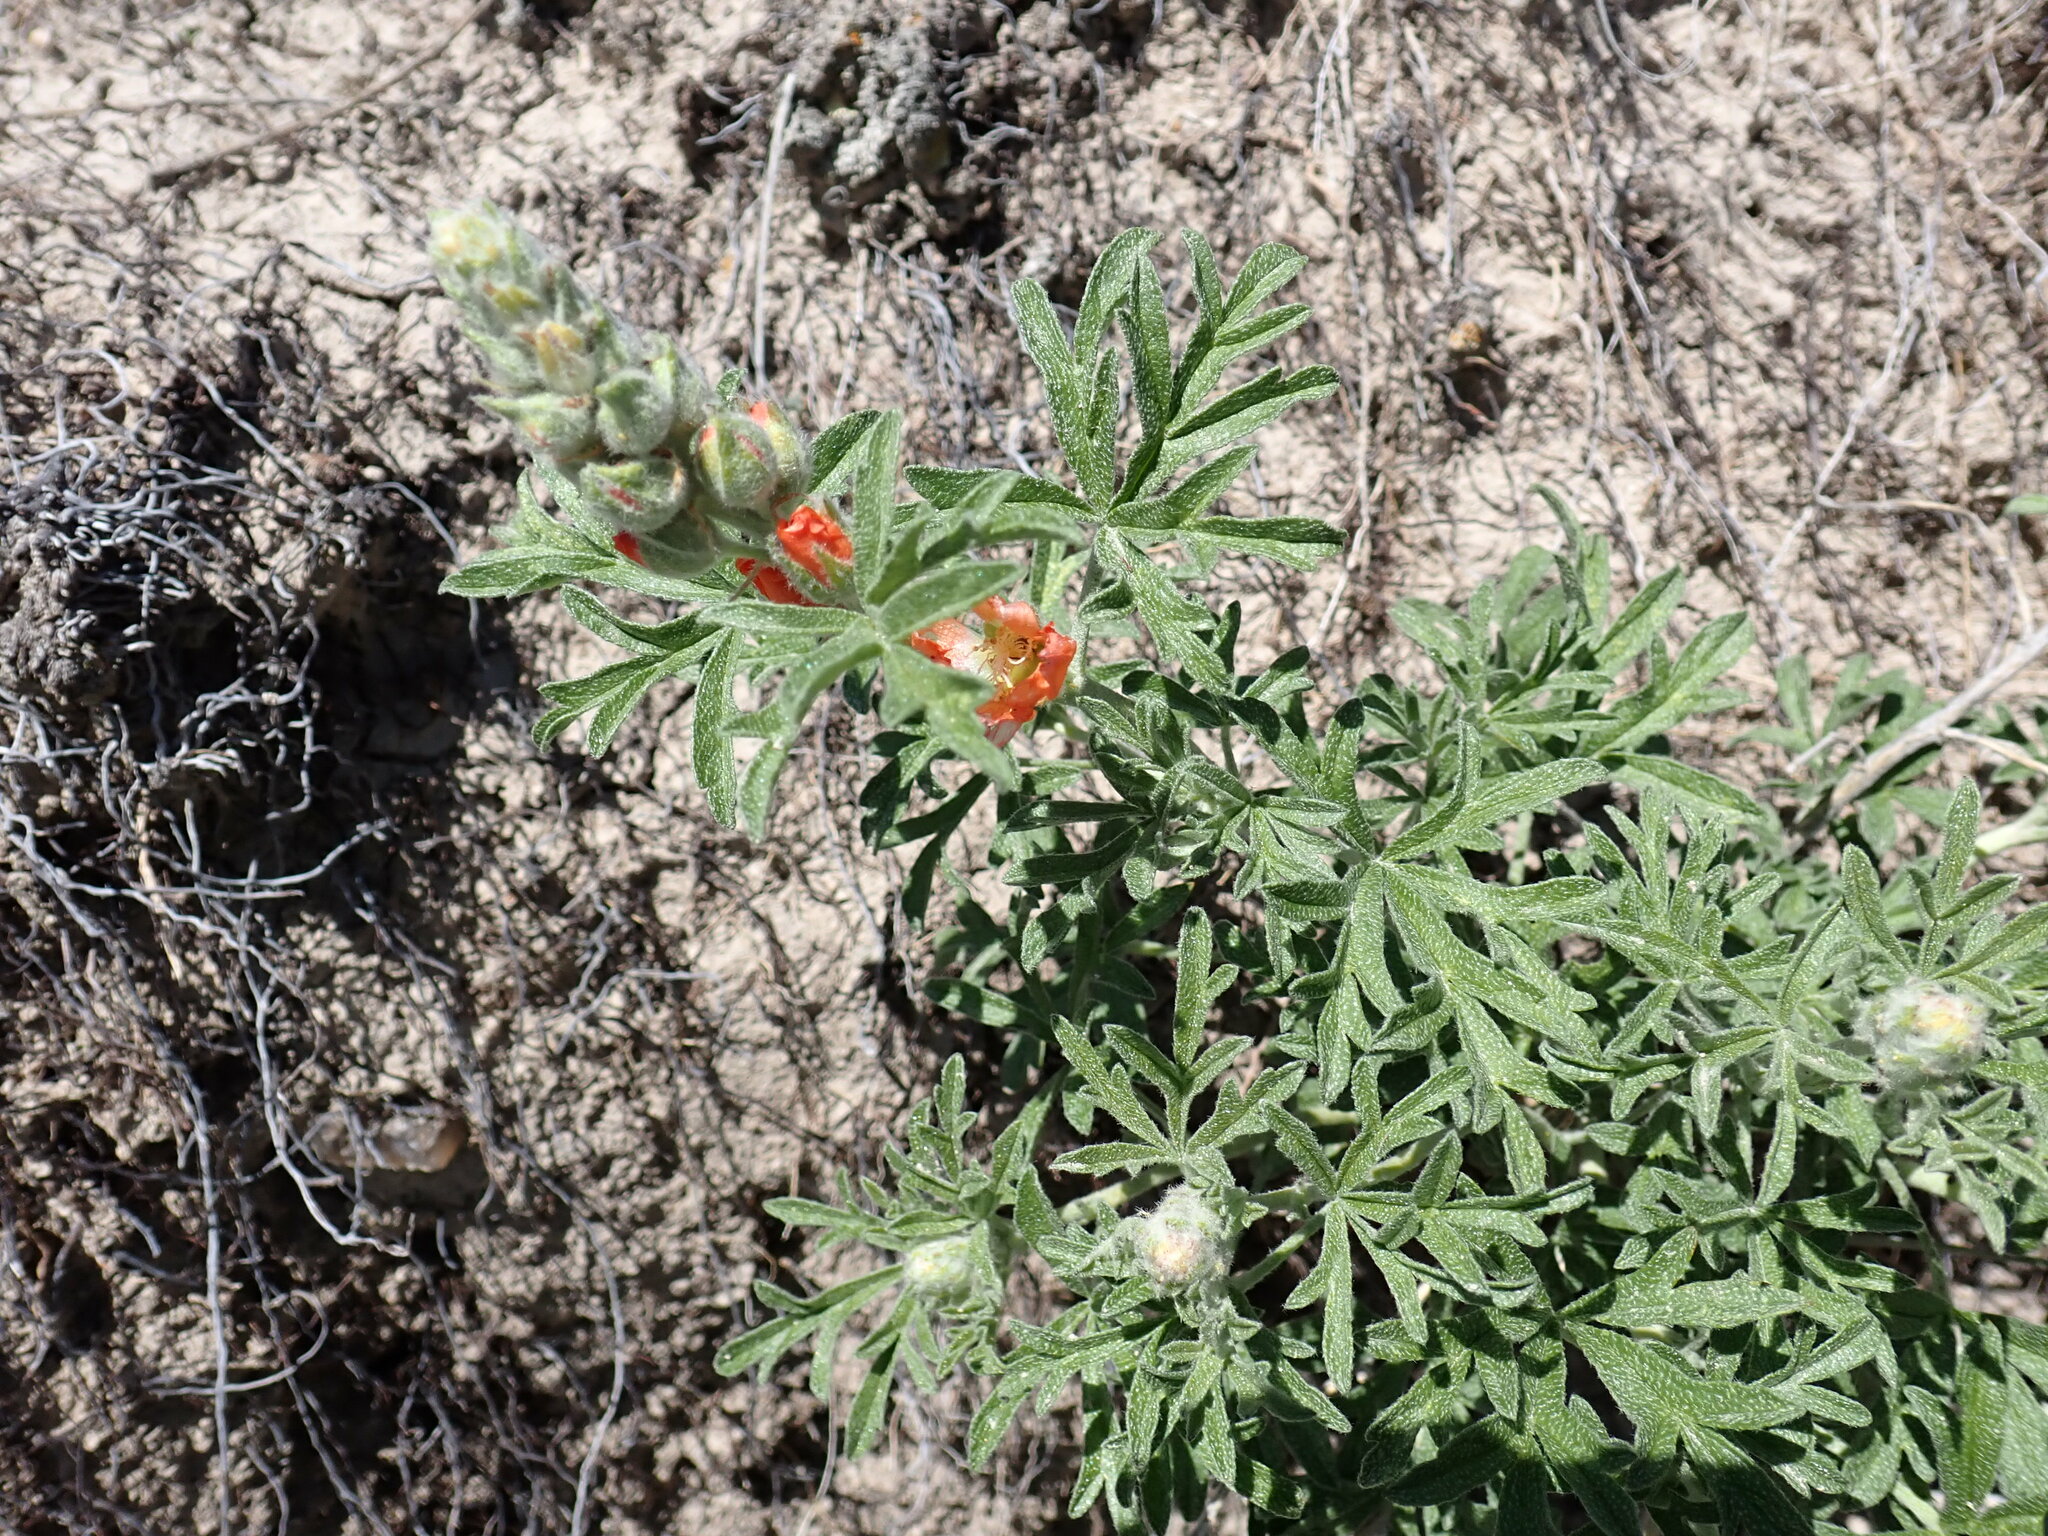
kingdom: Plantae
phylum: Tracheophyta
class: Magnoliopsida
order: Malvales
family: Malvaceae
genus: Sphaeralcea
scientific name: Sphaeralcea coccinea
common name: Moss-rose
